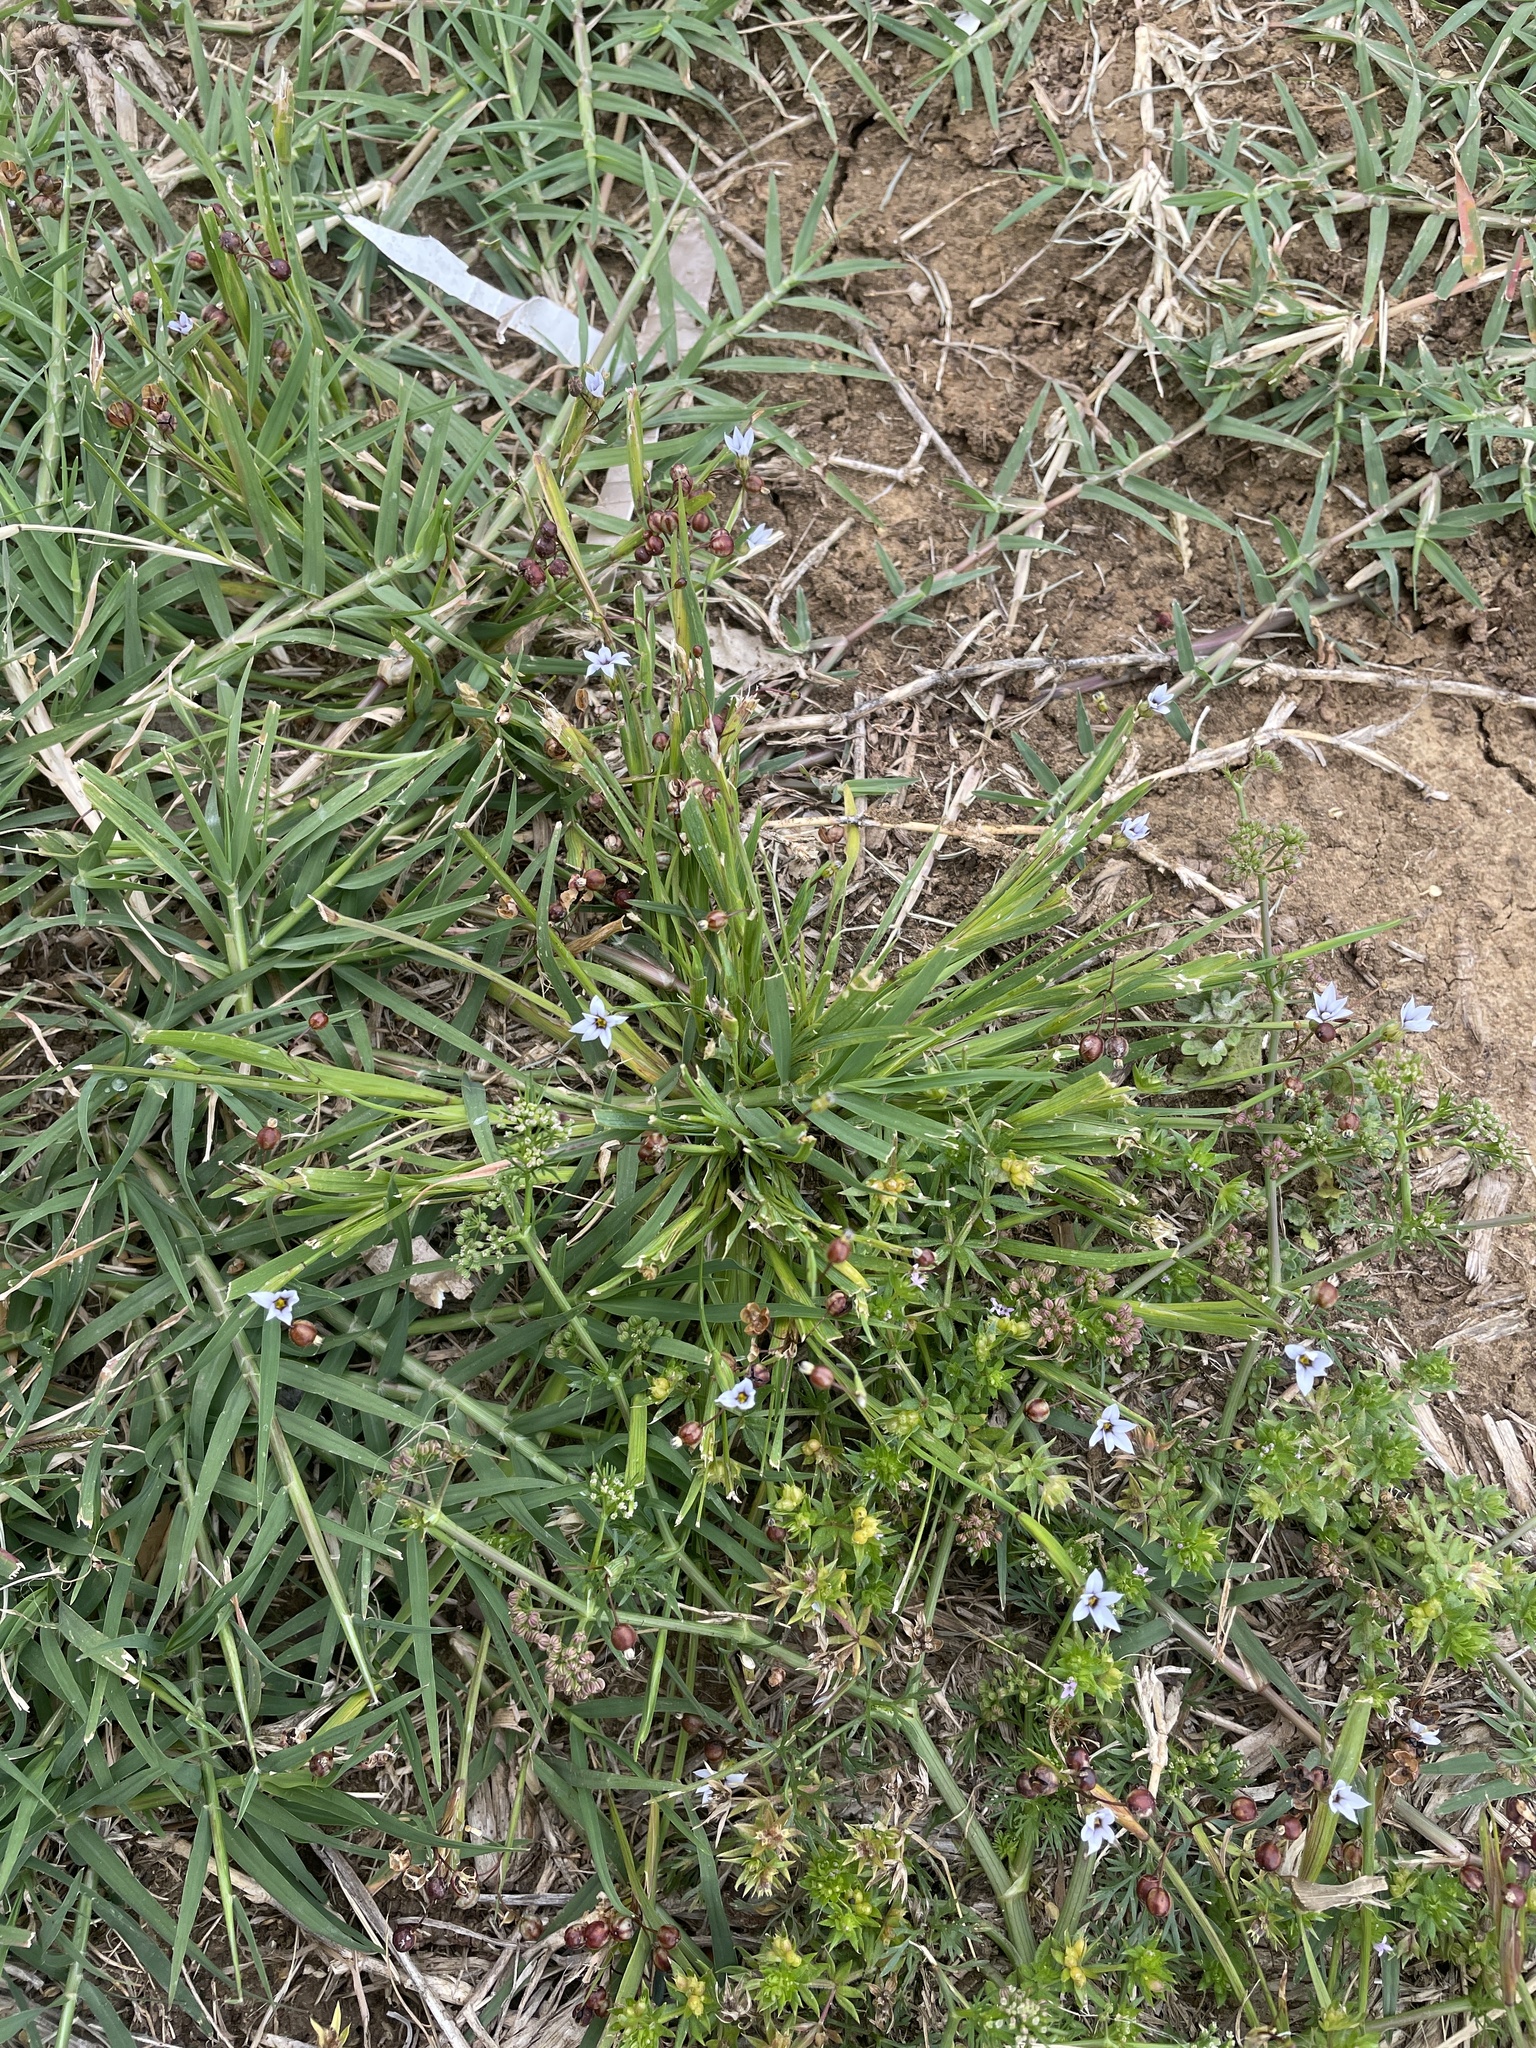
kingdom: Plantae
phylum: Tracheophyta
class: Liliopsida
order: Asparagales
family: Iridaceae
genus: Sisyrinchium
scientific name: Sisyrinchium micranthum
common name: Bermuda pigroot
